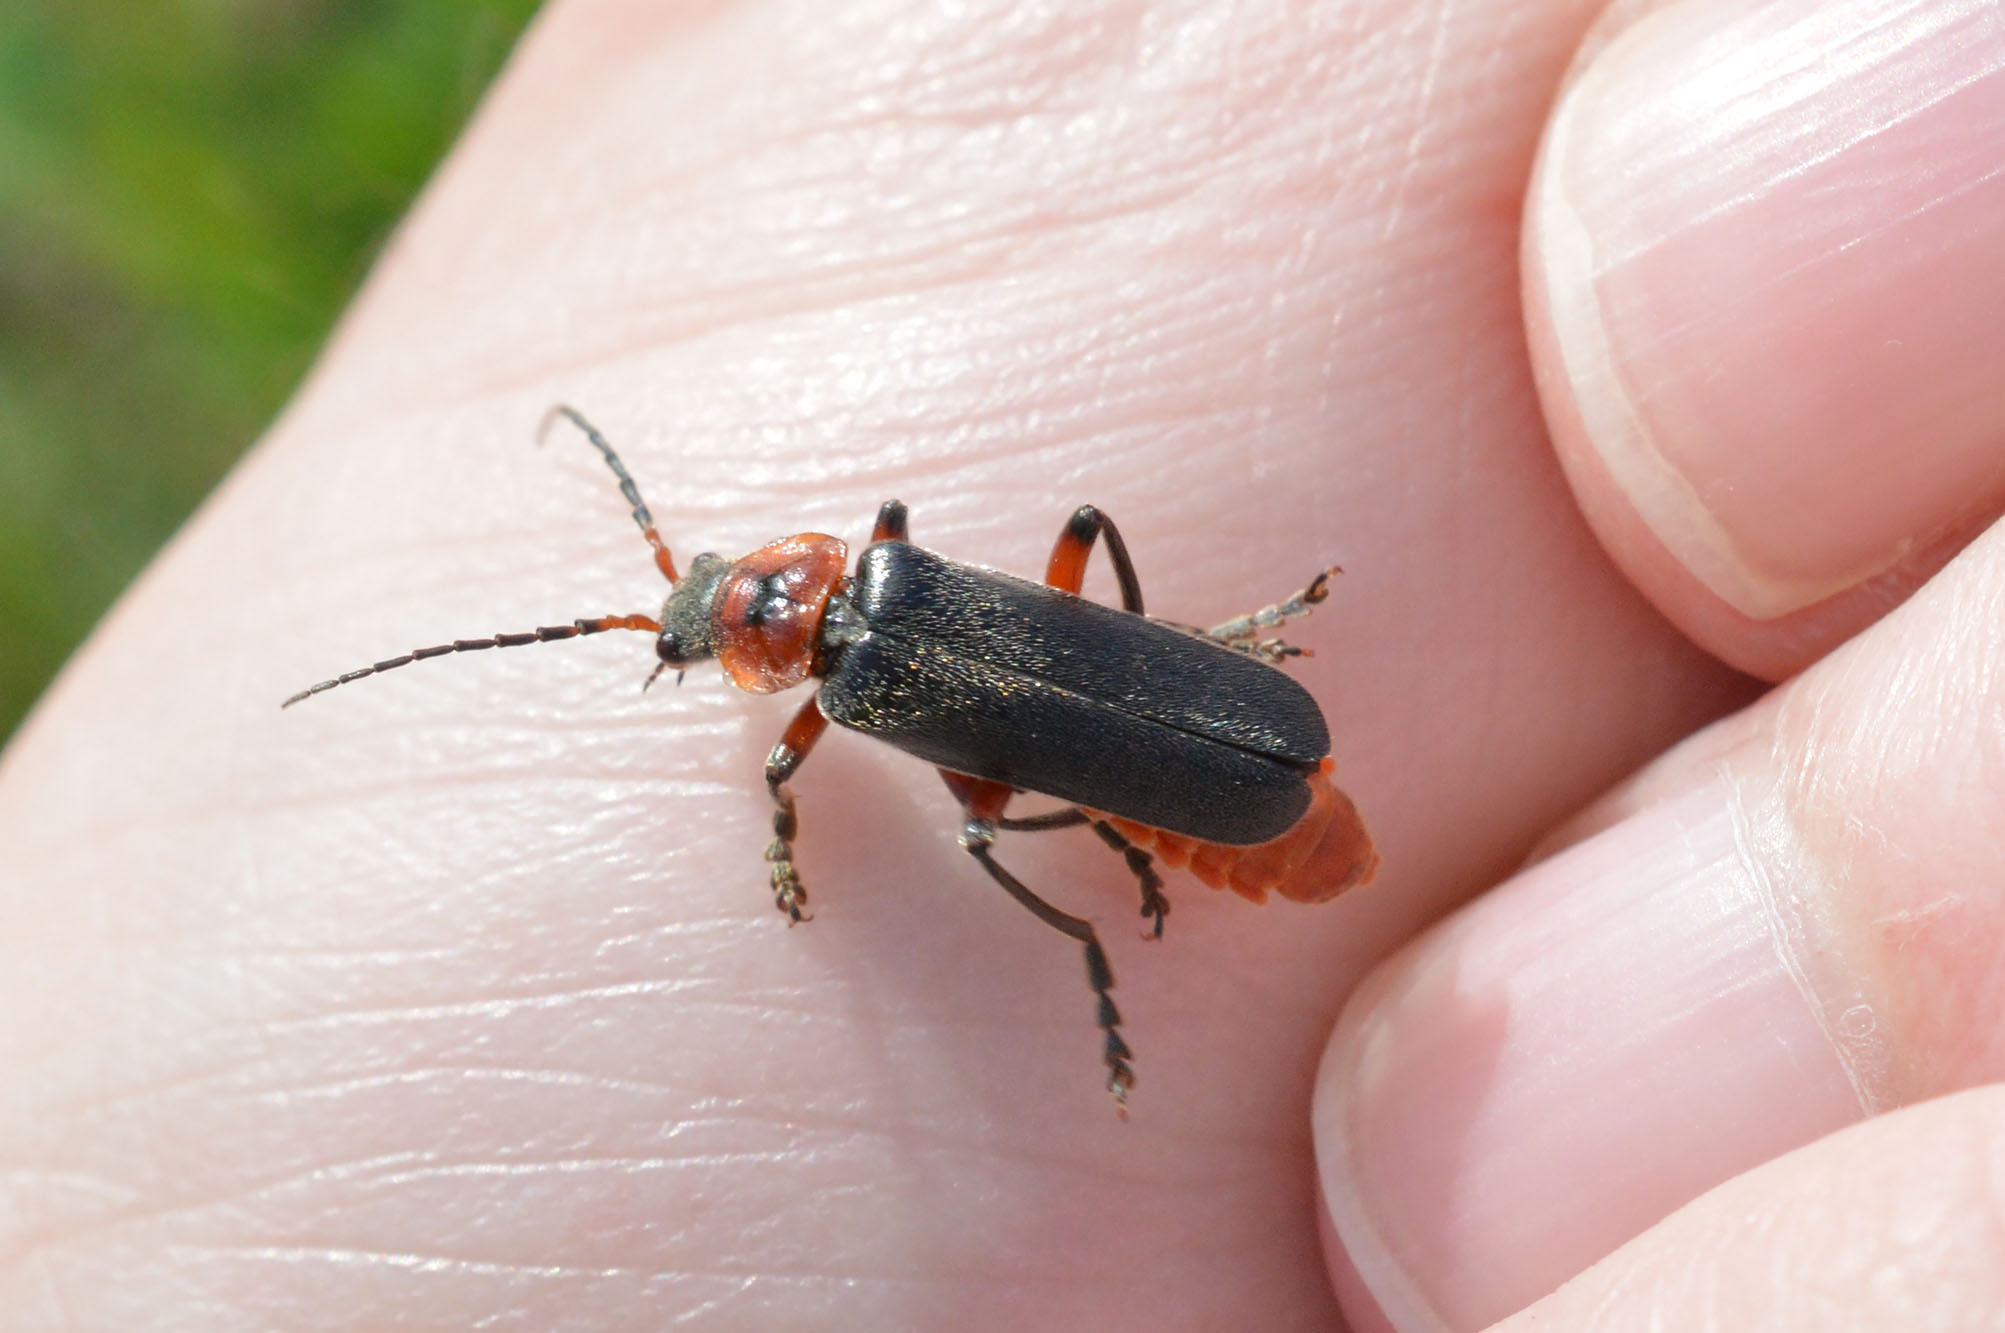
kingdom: Animalia
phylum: Arthropoda
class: Insecta
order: Coleoptera
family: Cantharidae
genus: Cantharis
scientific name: Cantharis rustica
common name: Soldier beetle
